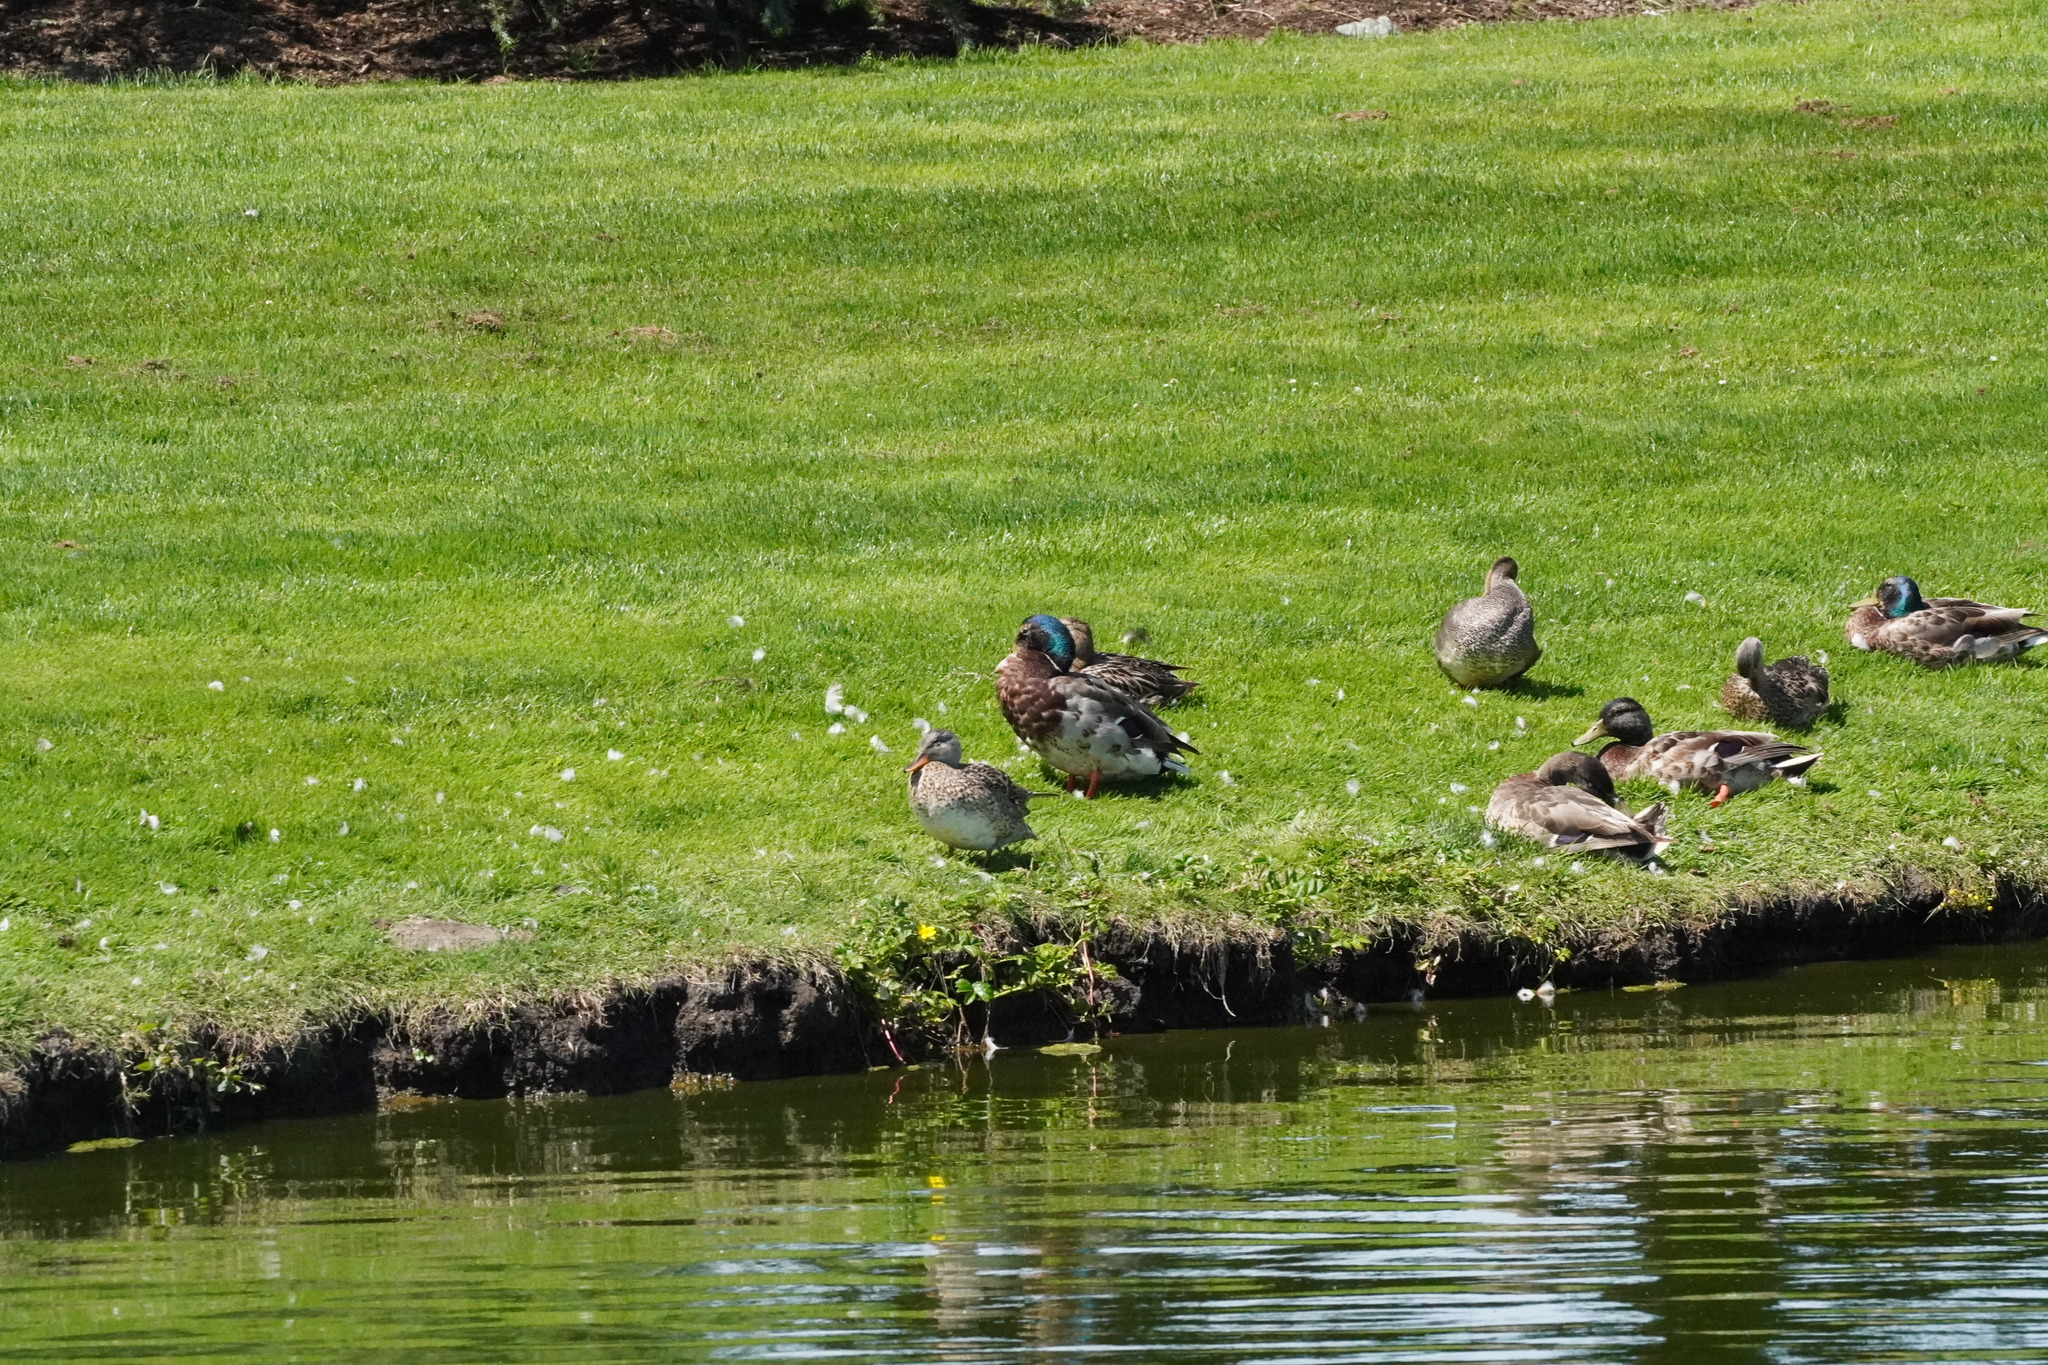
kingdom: Animalia
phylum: Chordata
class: Aves
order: Anseriformes
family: Anatidae
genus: Anas
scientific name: Anas platyrhynchos
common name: Mallard
